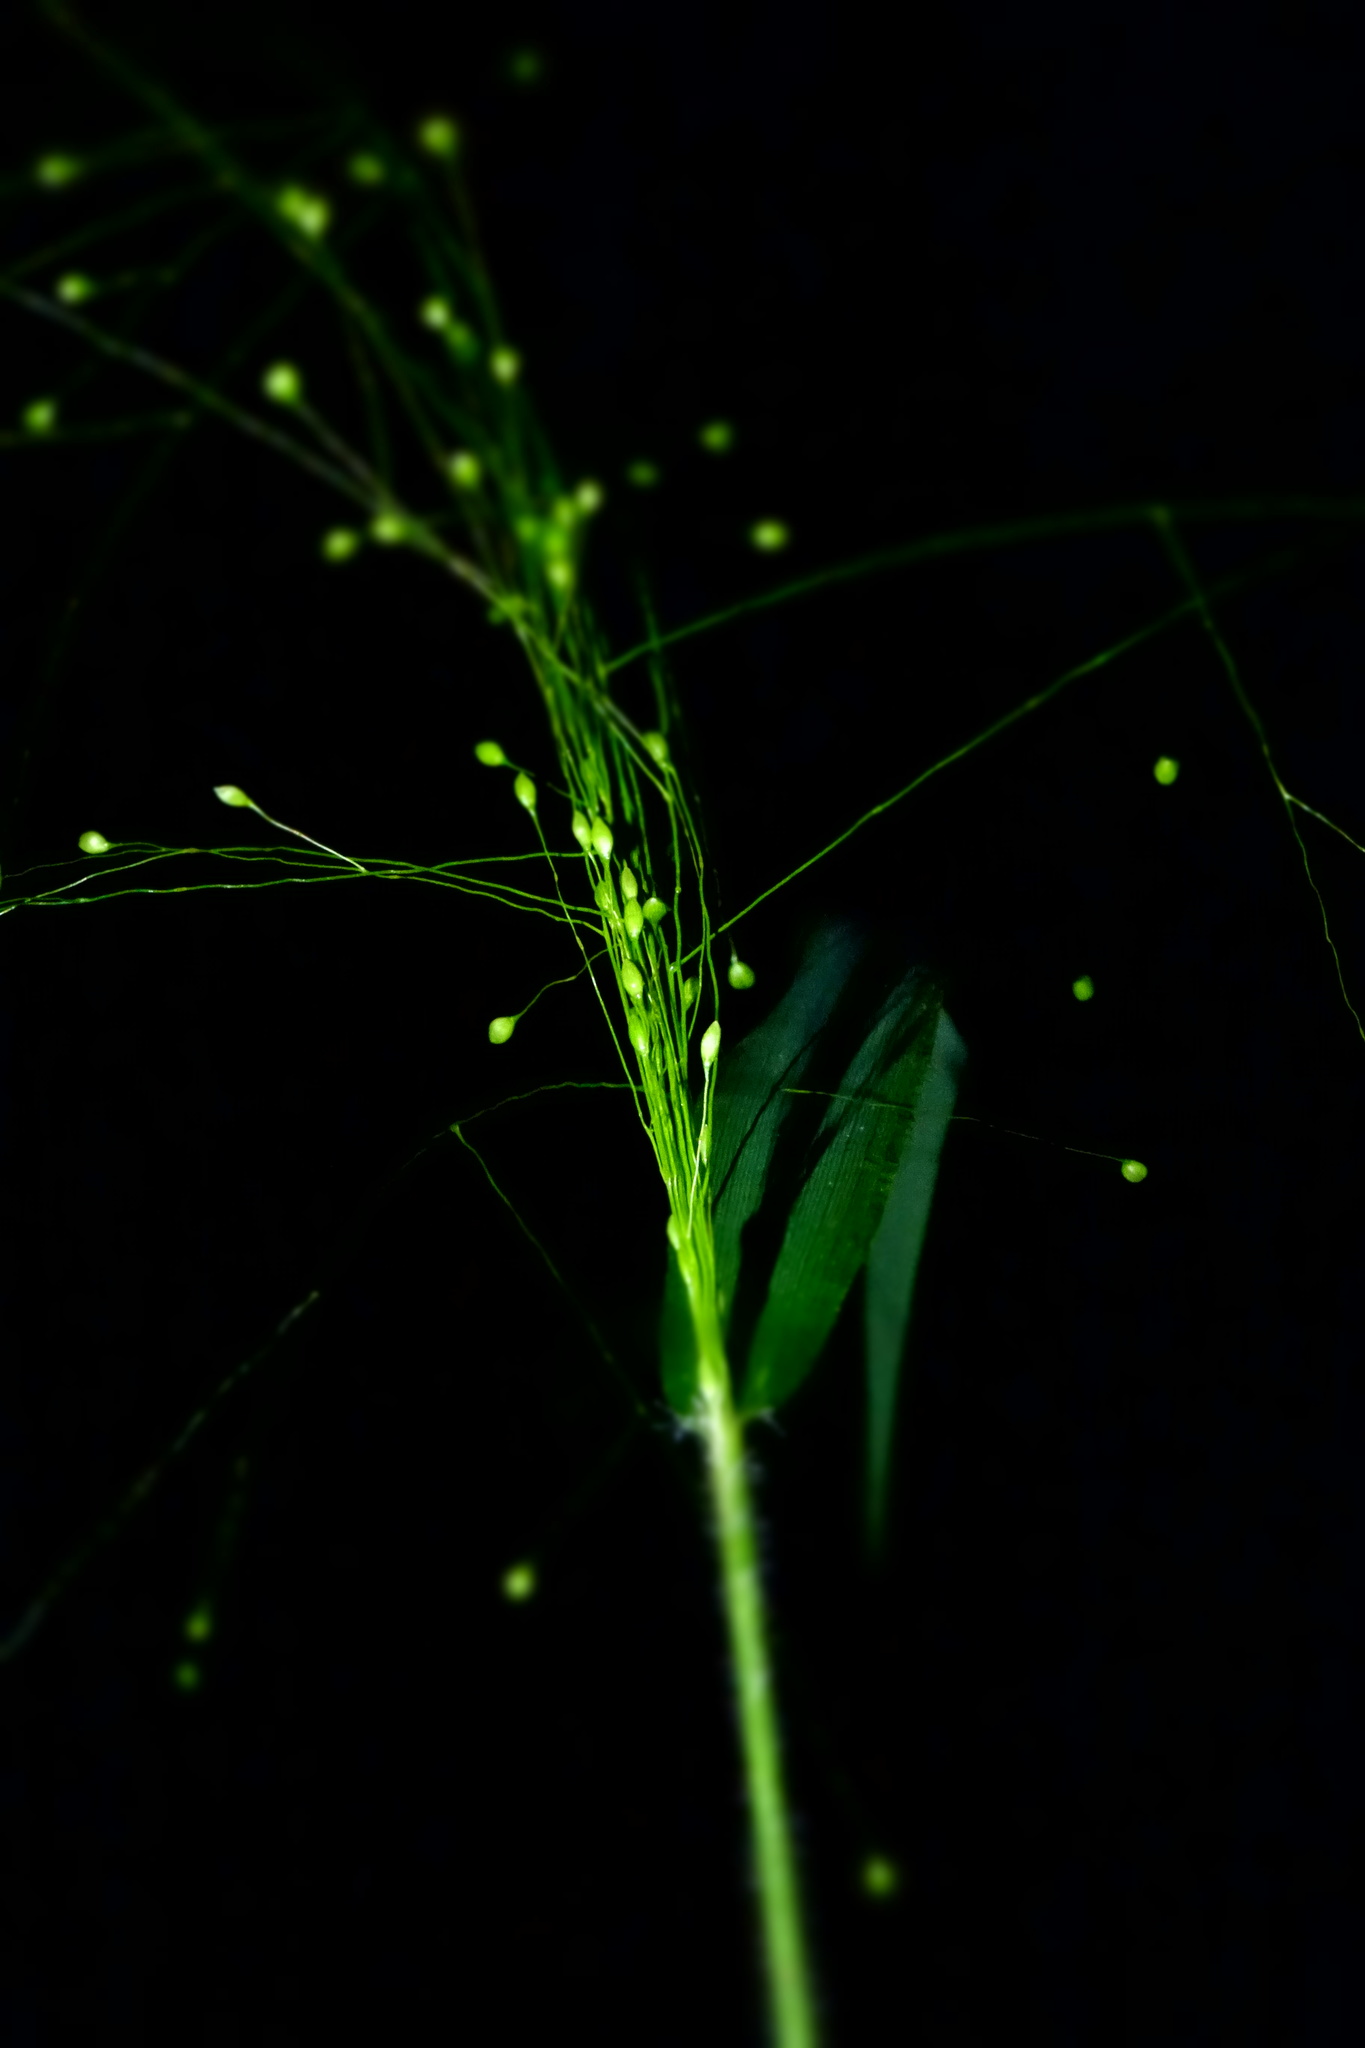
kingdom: Plantae
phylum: Tracheophyta
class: Liliopsida
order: Poales
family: Poaceae
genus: Isachne
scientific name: Isachne mauritiana
